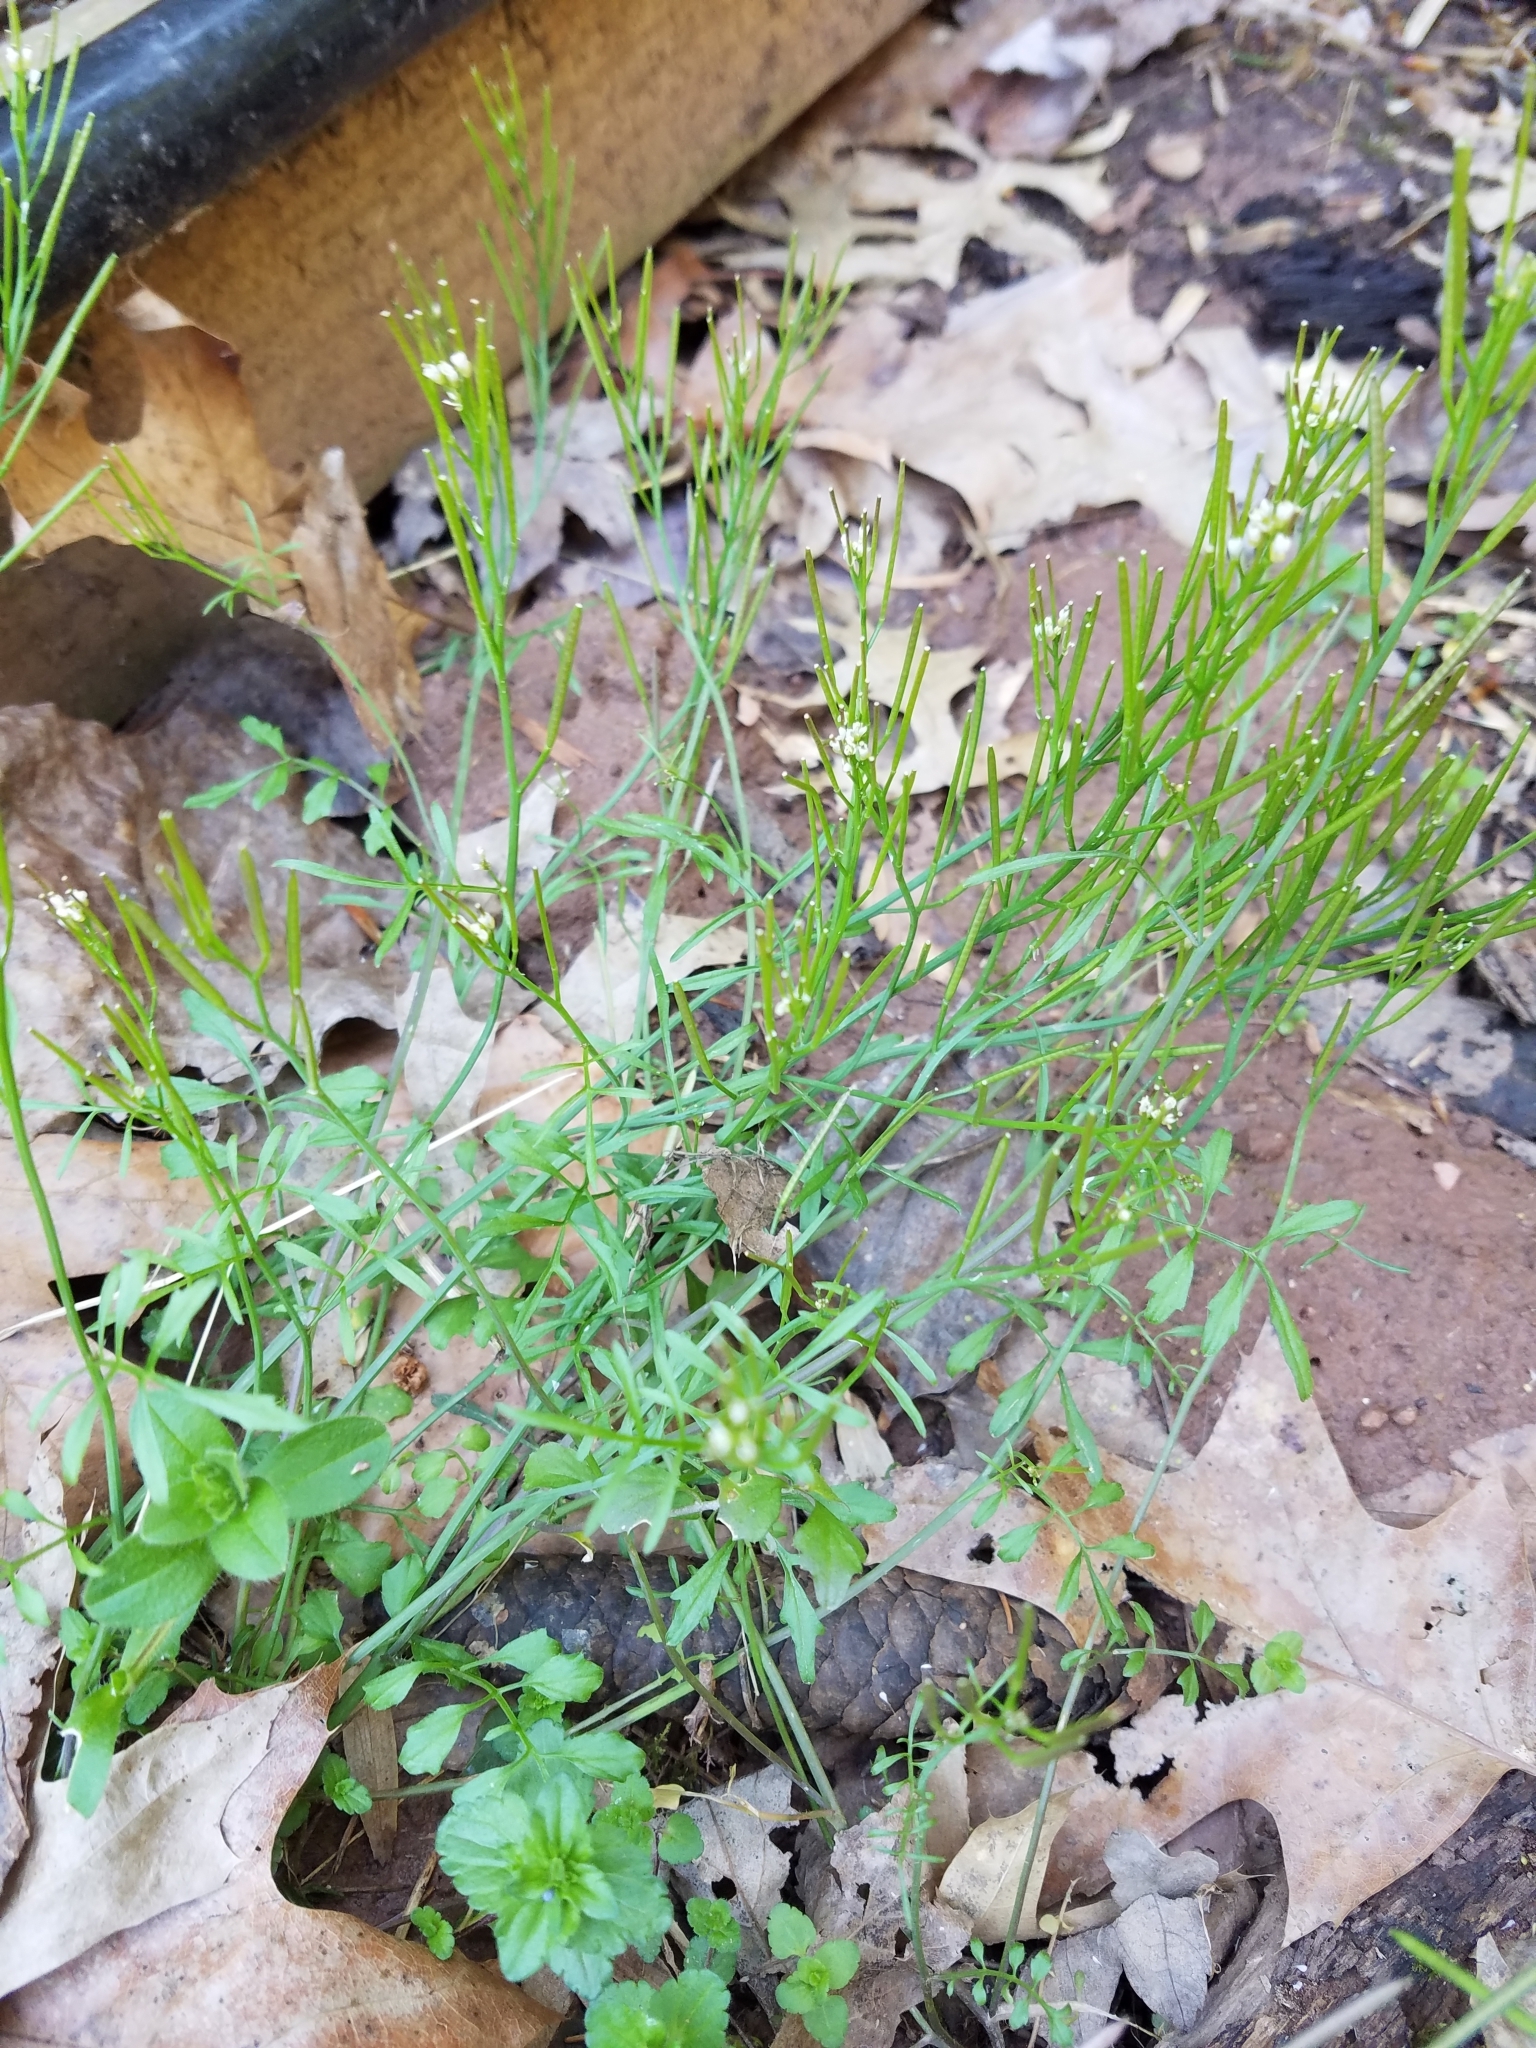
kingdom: Plantae
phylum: Tracheophyta
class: Magnoliopsida
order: Brassicales
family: Brassicaceae
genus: Cardamine
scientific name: Cardamine hirsuta
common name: Hairy bittercress
